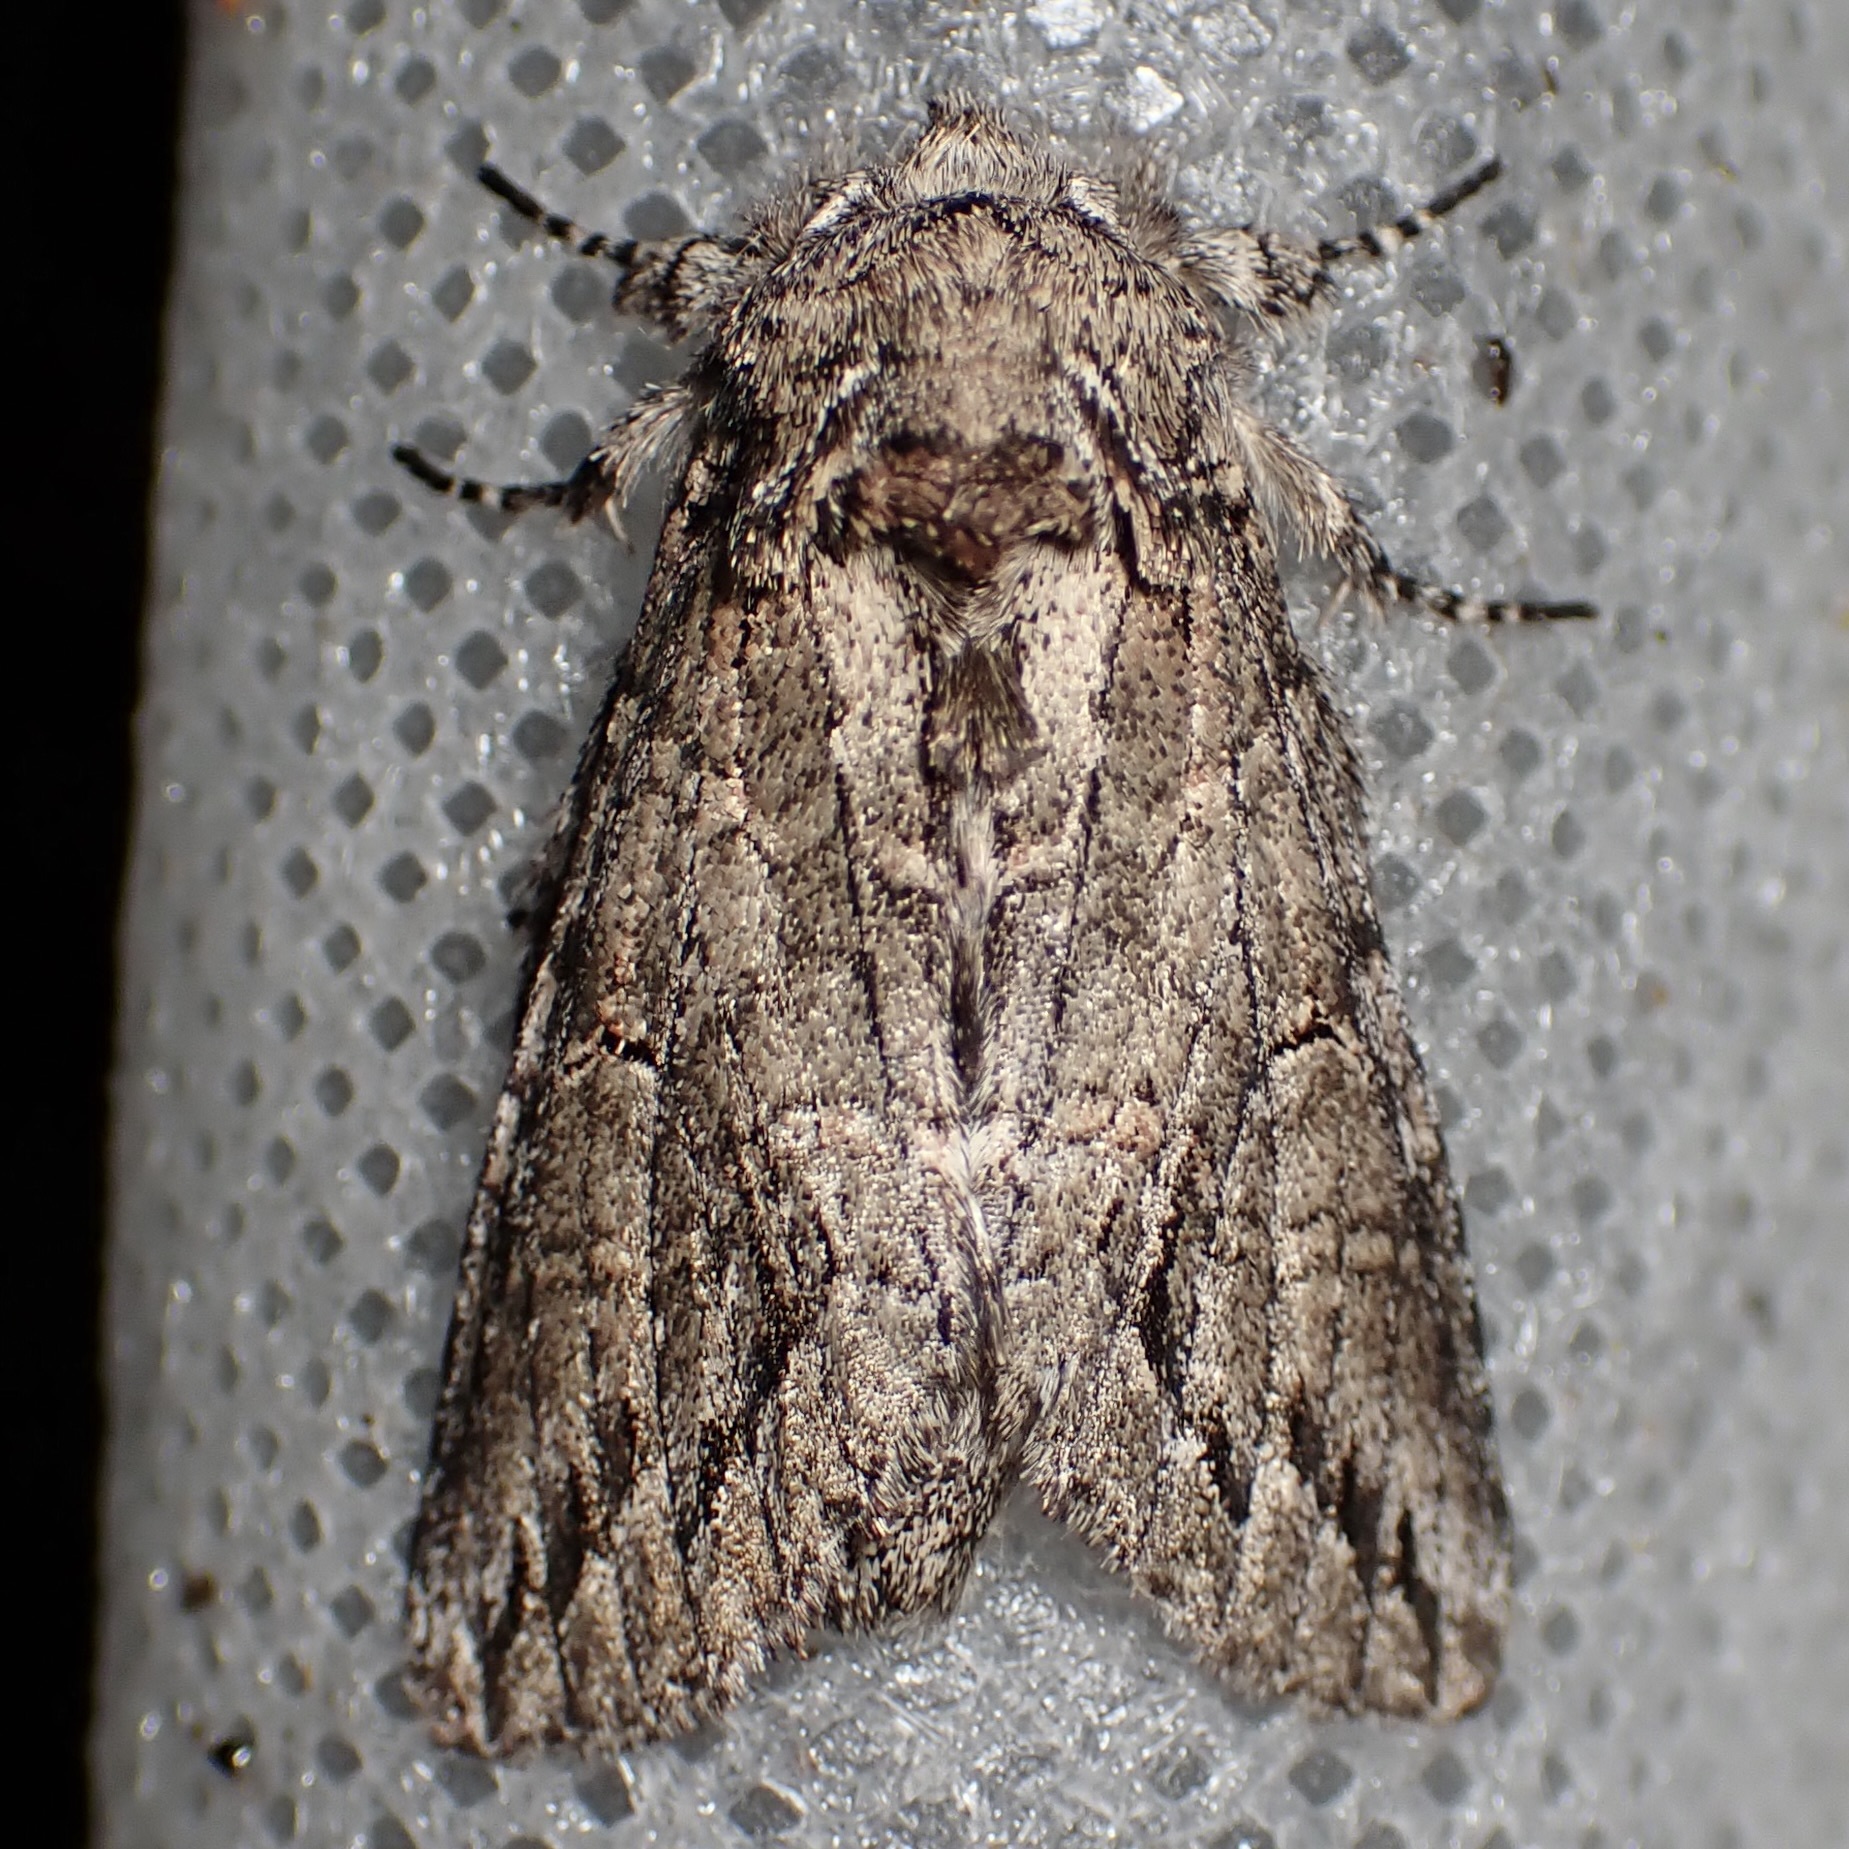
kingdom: Animalia
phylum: Arthropoda
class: Insecta
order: Lepidoptera
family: Notodontidae
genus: Heterocampa
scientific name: Heterocampa averna
